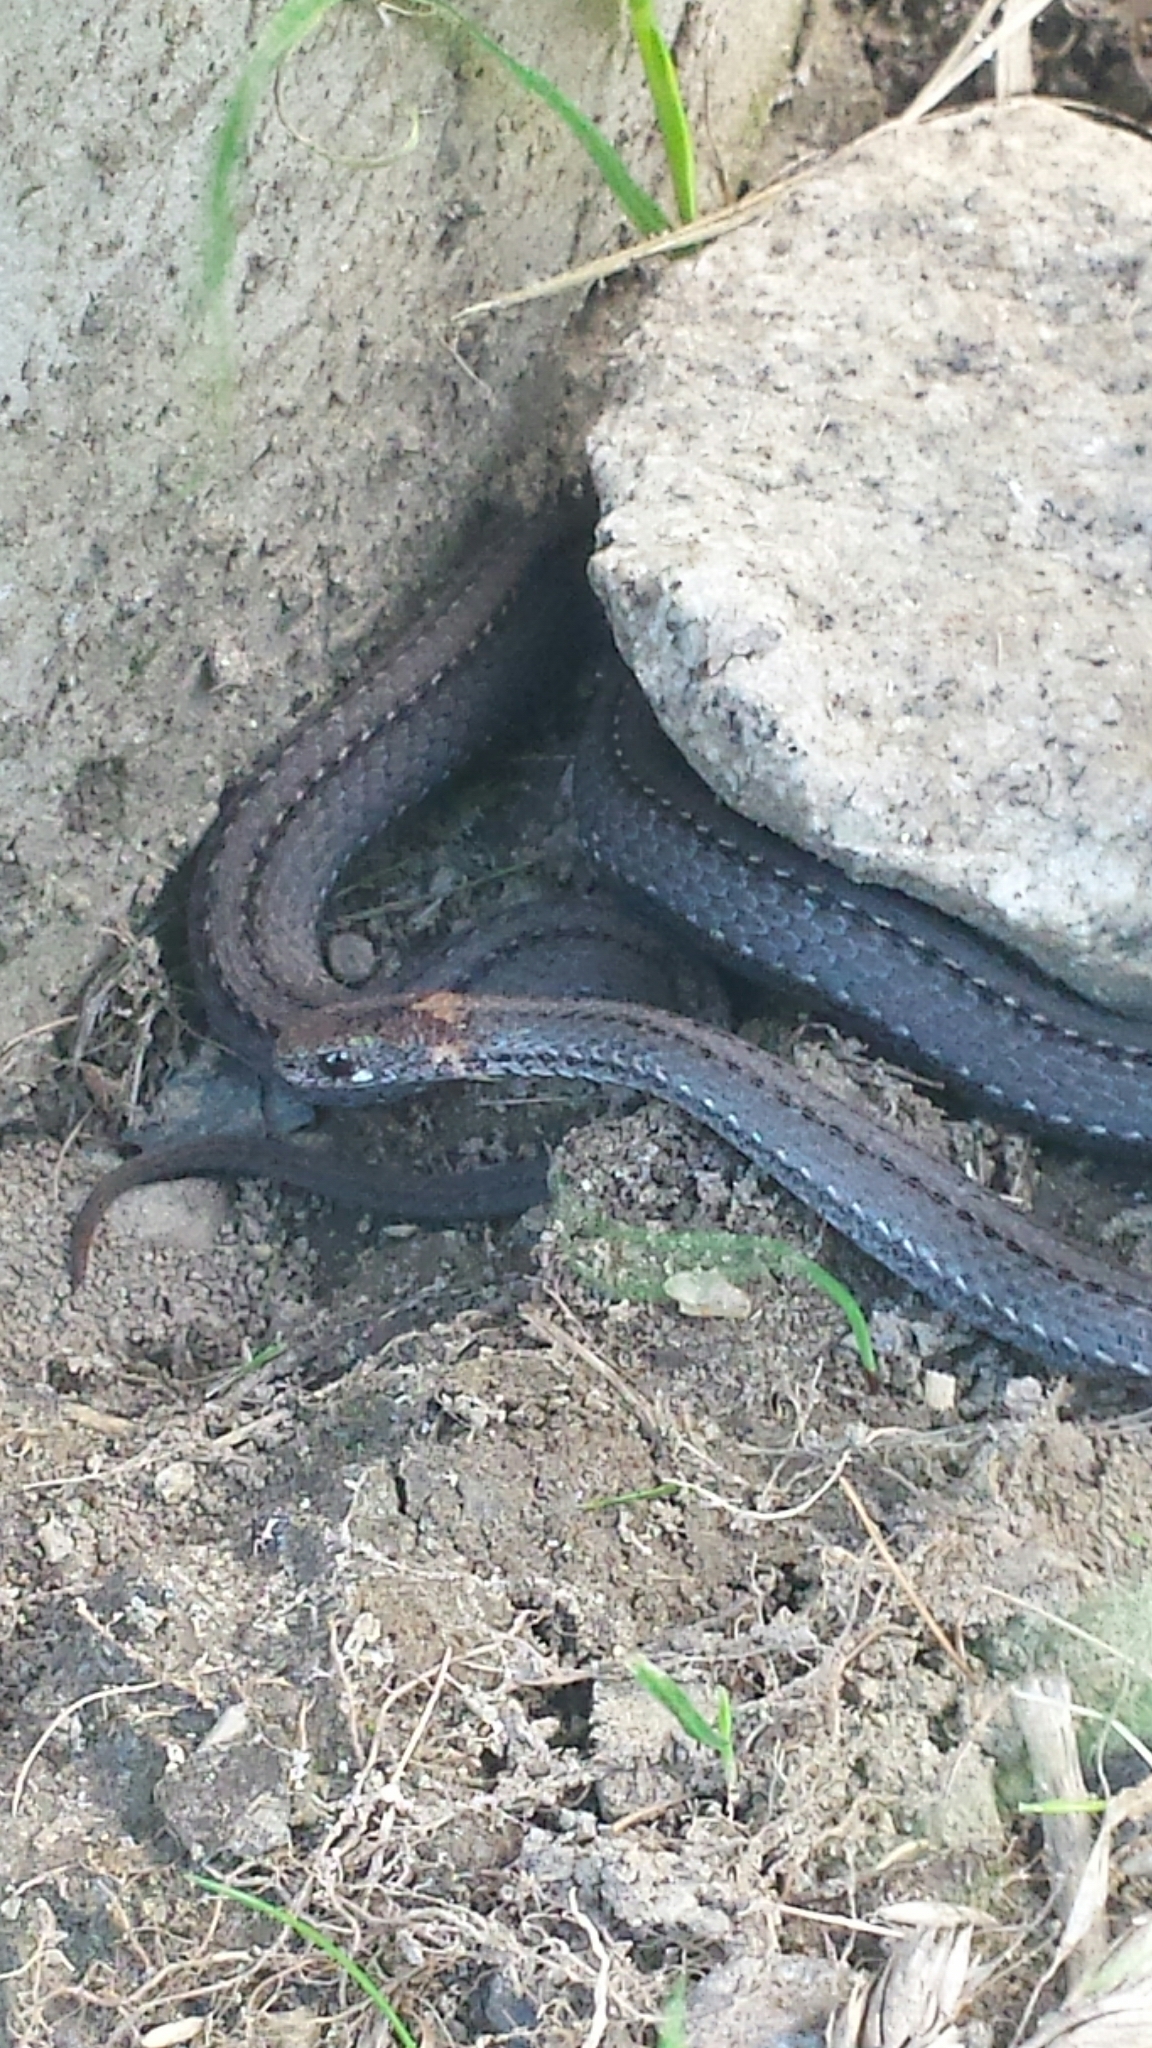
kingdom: Animalia
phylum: Chordata
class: Squamata
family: Colubridae
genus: Storeria
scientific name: Storeria occipitomaculata
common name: Redbelly snake
